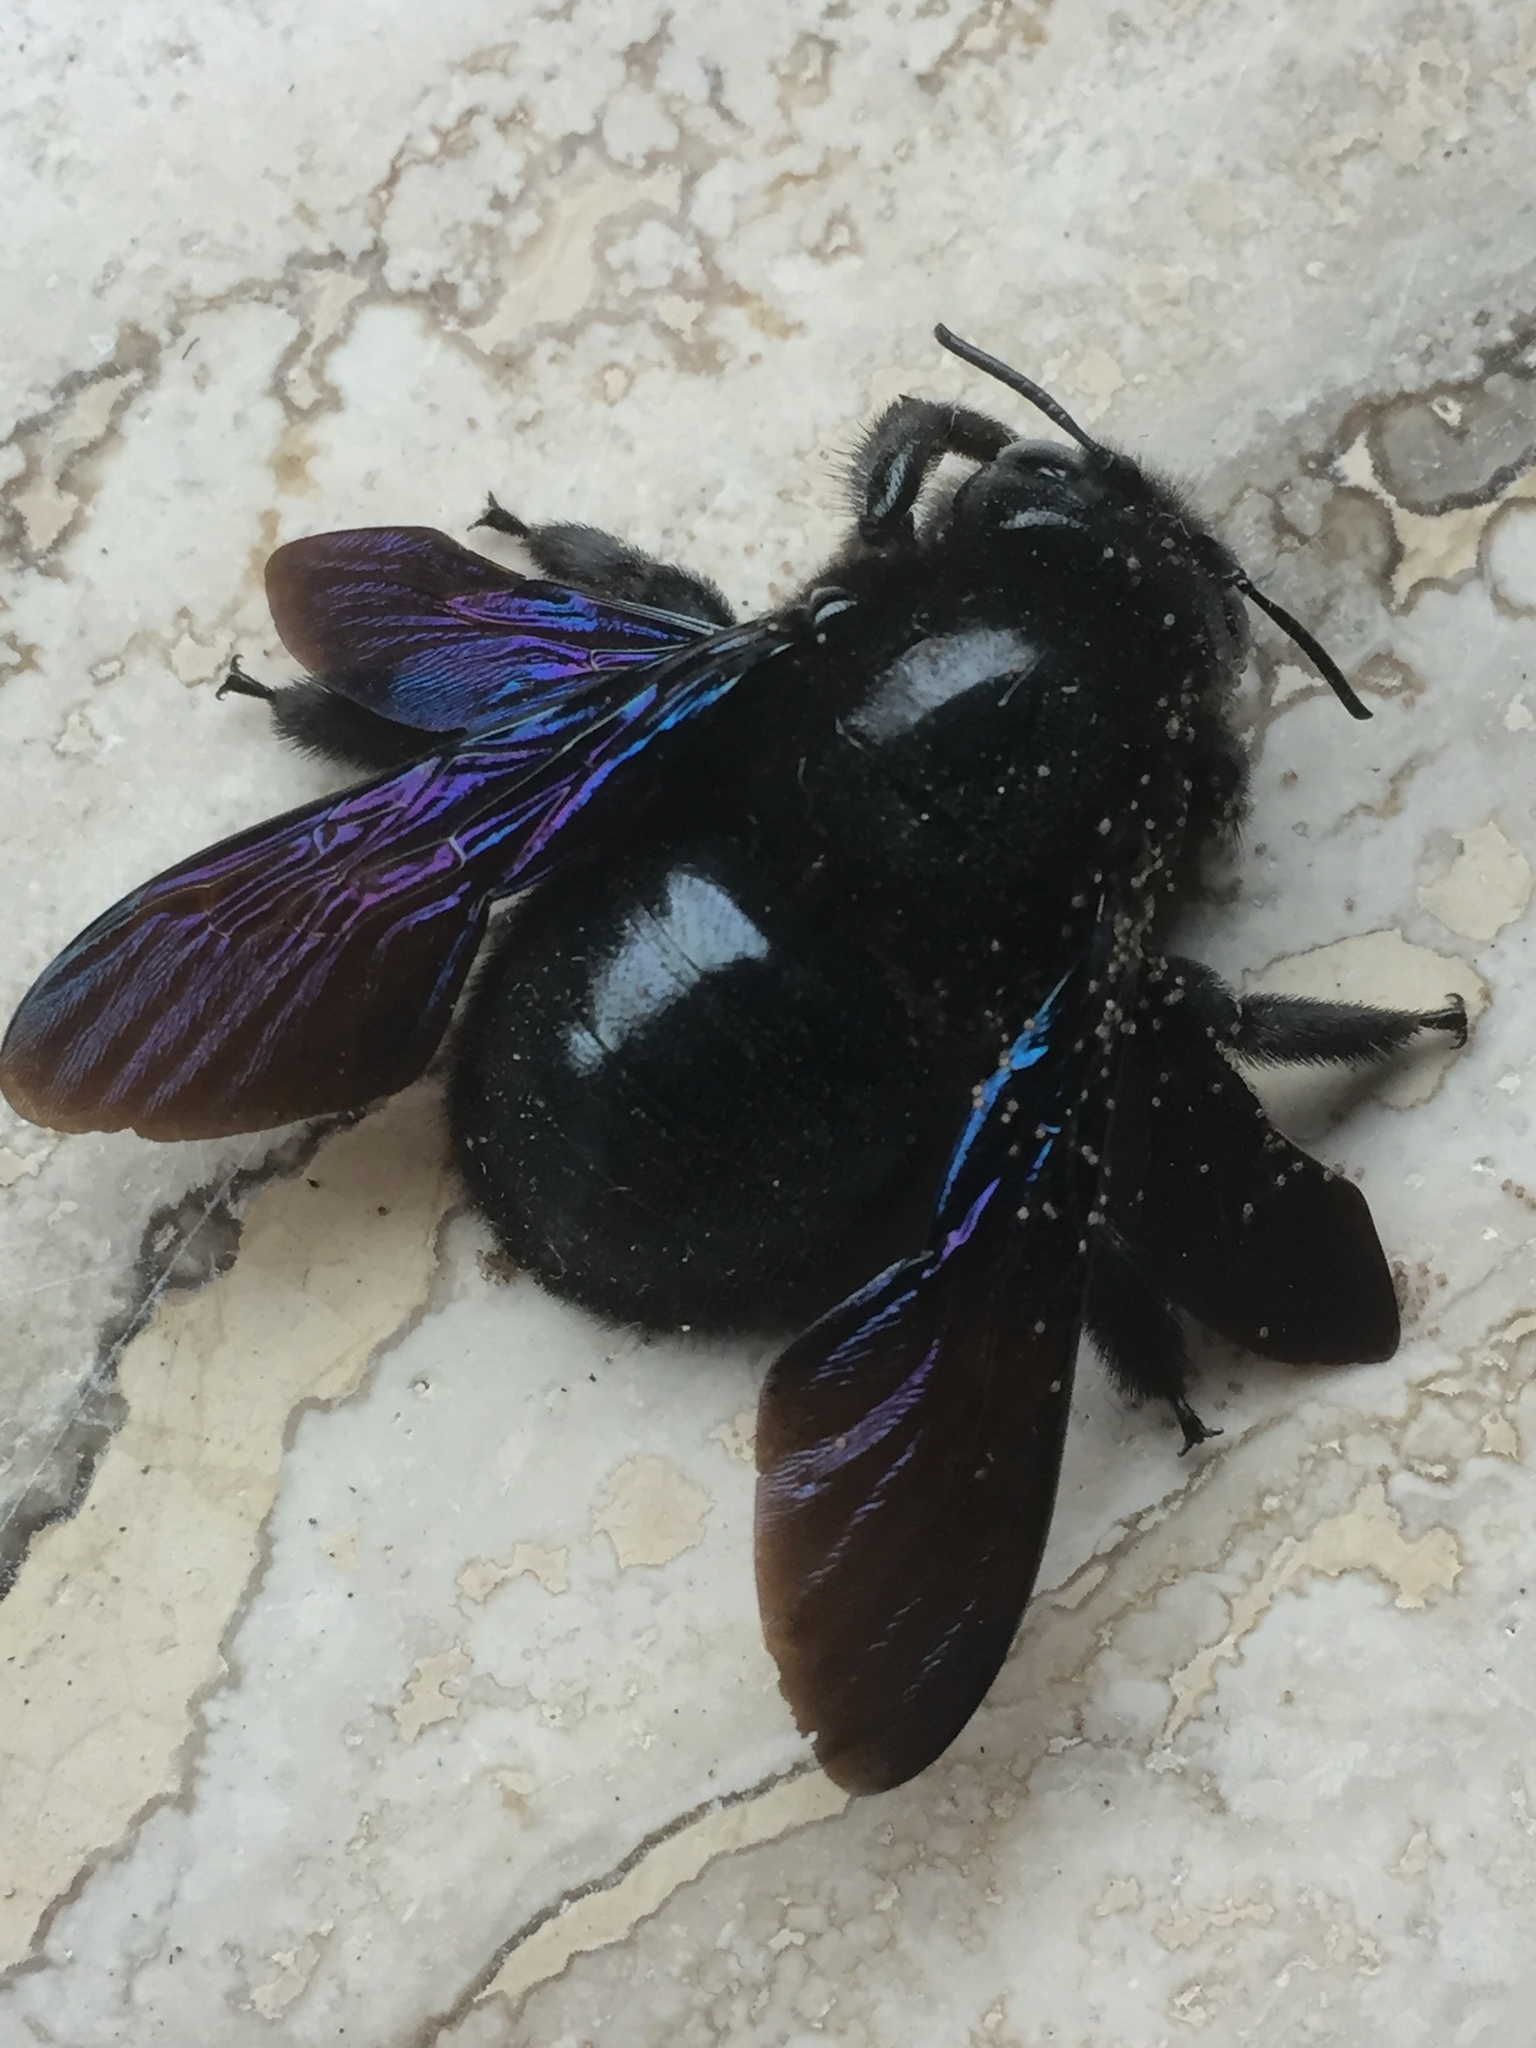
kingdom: Animalia
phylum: Arthropoda
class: Insecta
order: Hymenoptera
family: Apidae
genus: Xylocopa
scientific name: Xylocopa violacea
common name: Violet carpenter bee
